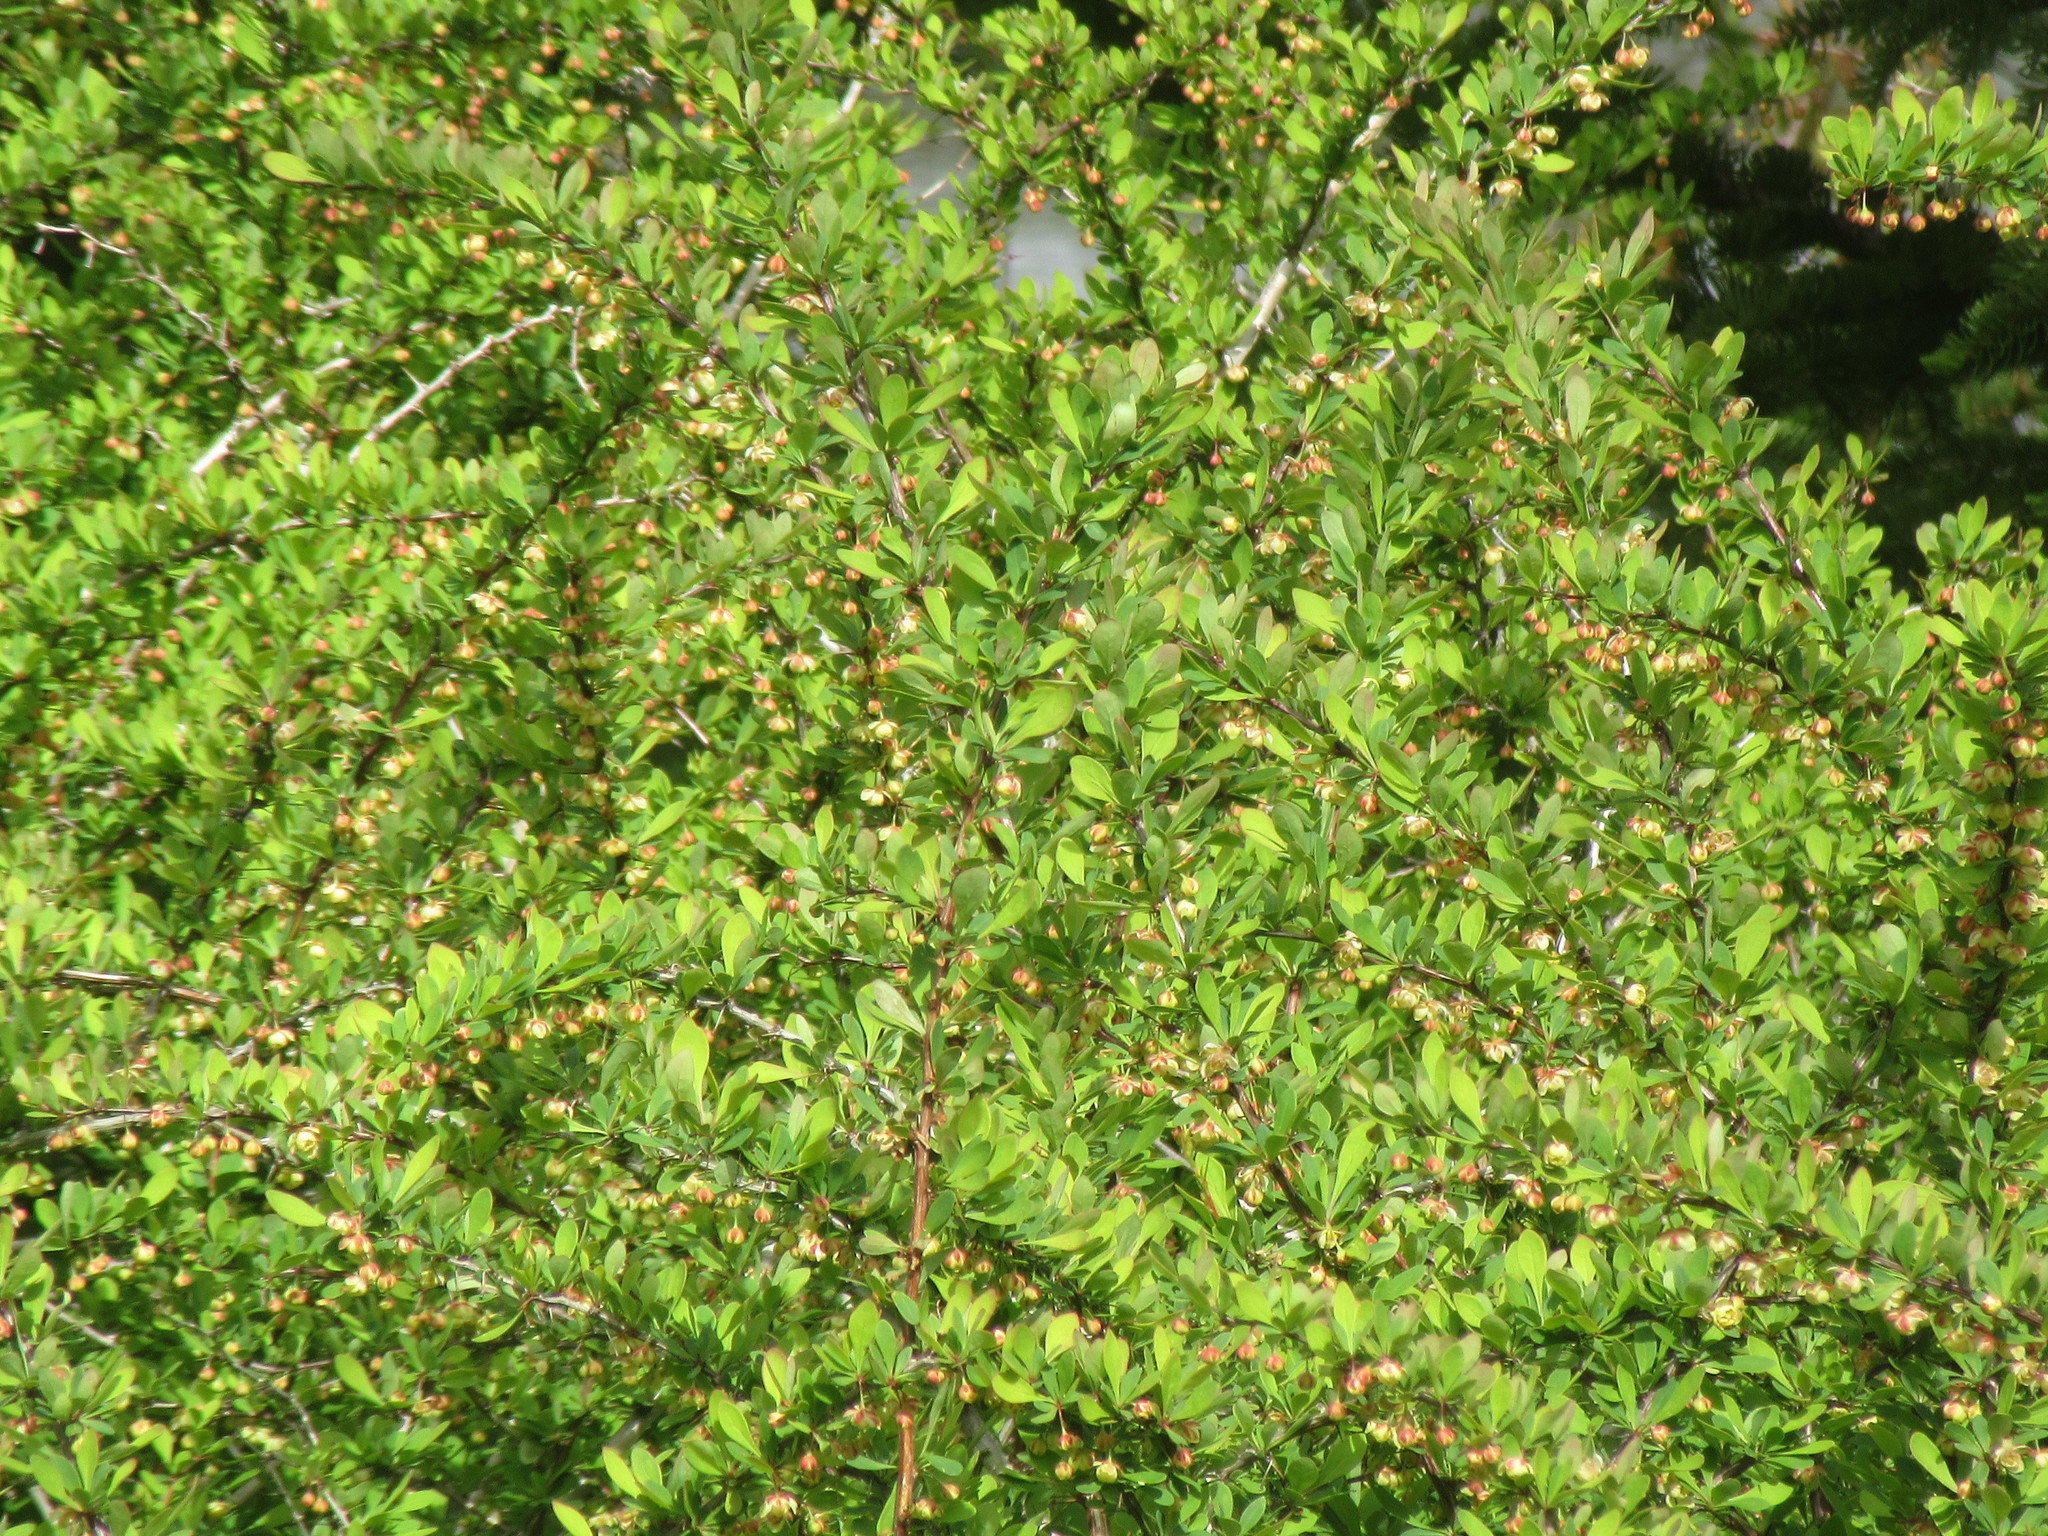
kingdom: Plantae
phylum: Tracheophyta
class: Magnoliopsida
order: Ranunculales
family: Berberidaceae
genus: Berberis
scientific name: Berberis thunbergii
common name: Japanese barberry
